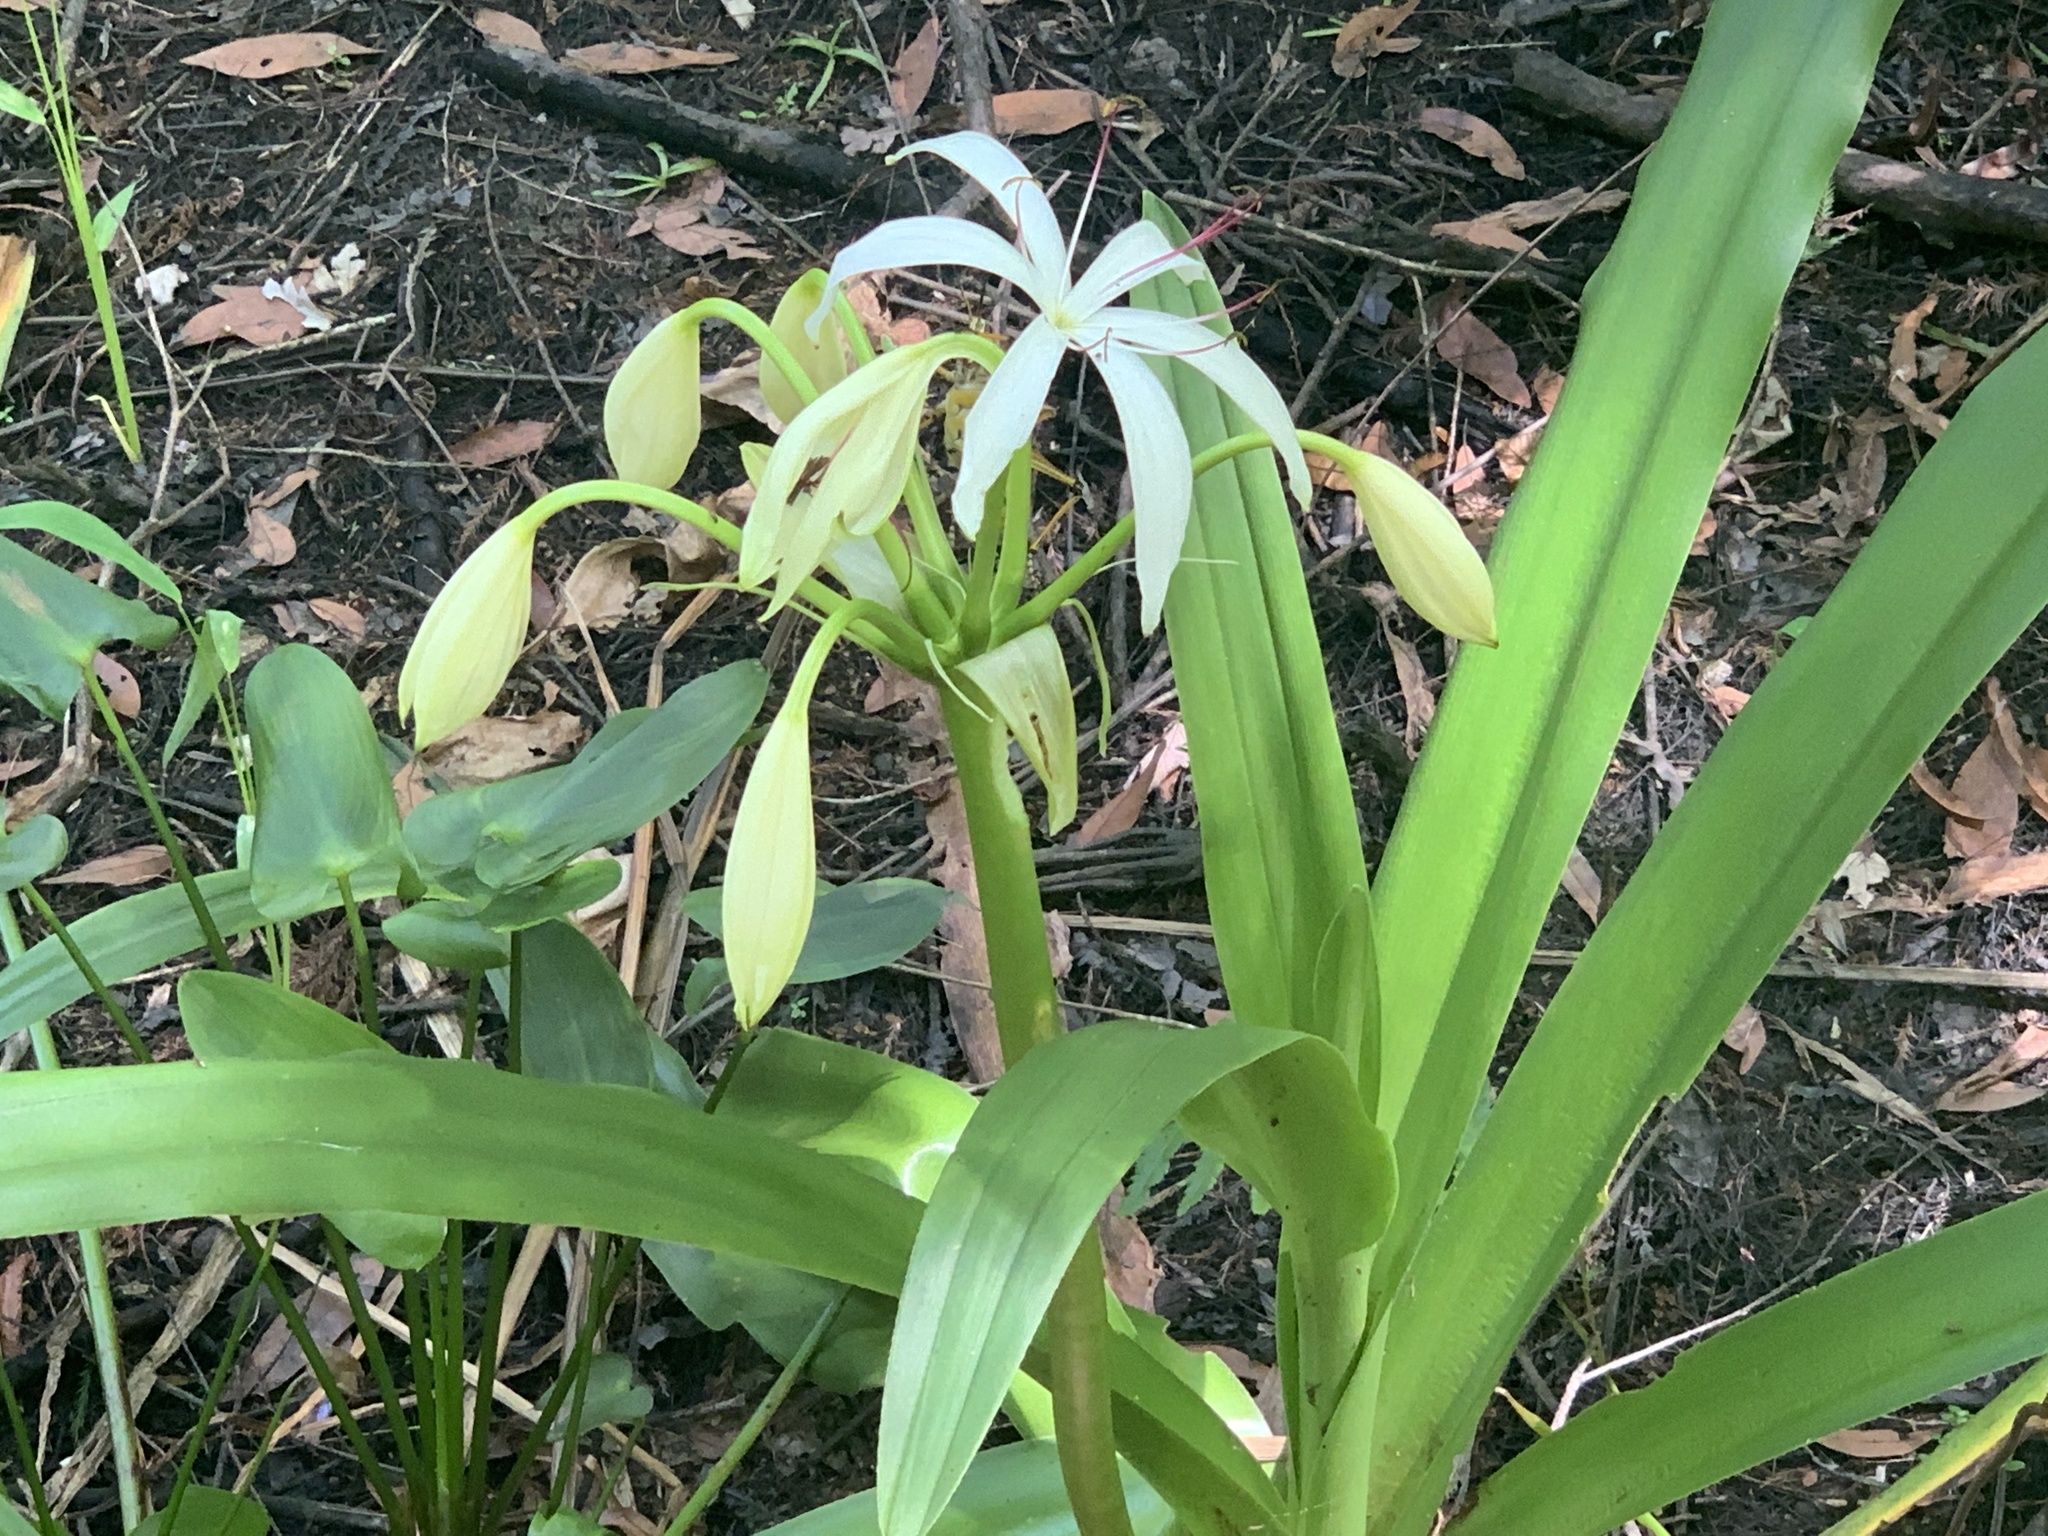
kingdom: Plantae
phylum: Tracheophyta
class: Liliopsida
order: Asparagales
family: Amaryllidaceae
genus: Crinum
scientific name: Crinum americanum
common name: Florida swamp-lily
